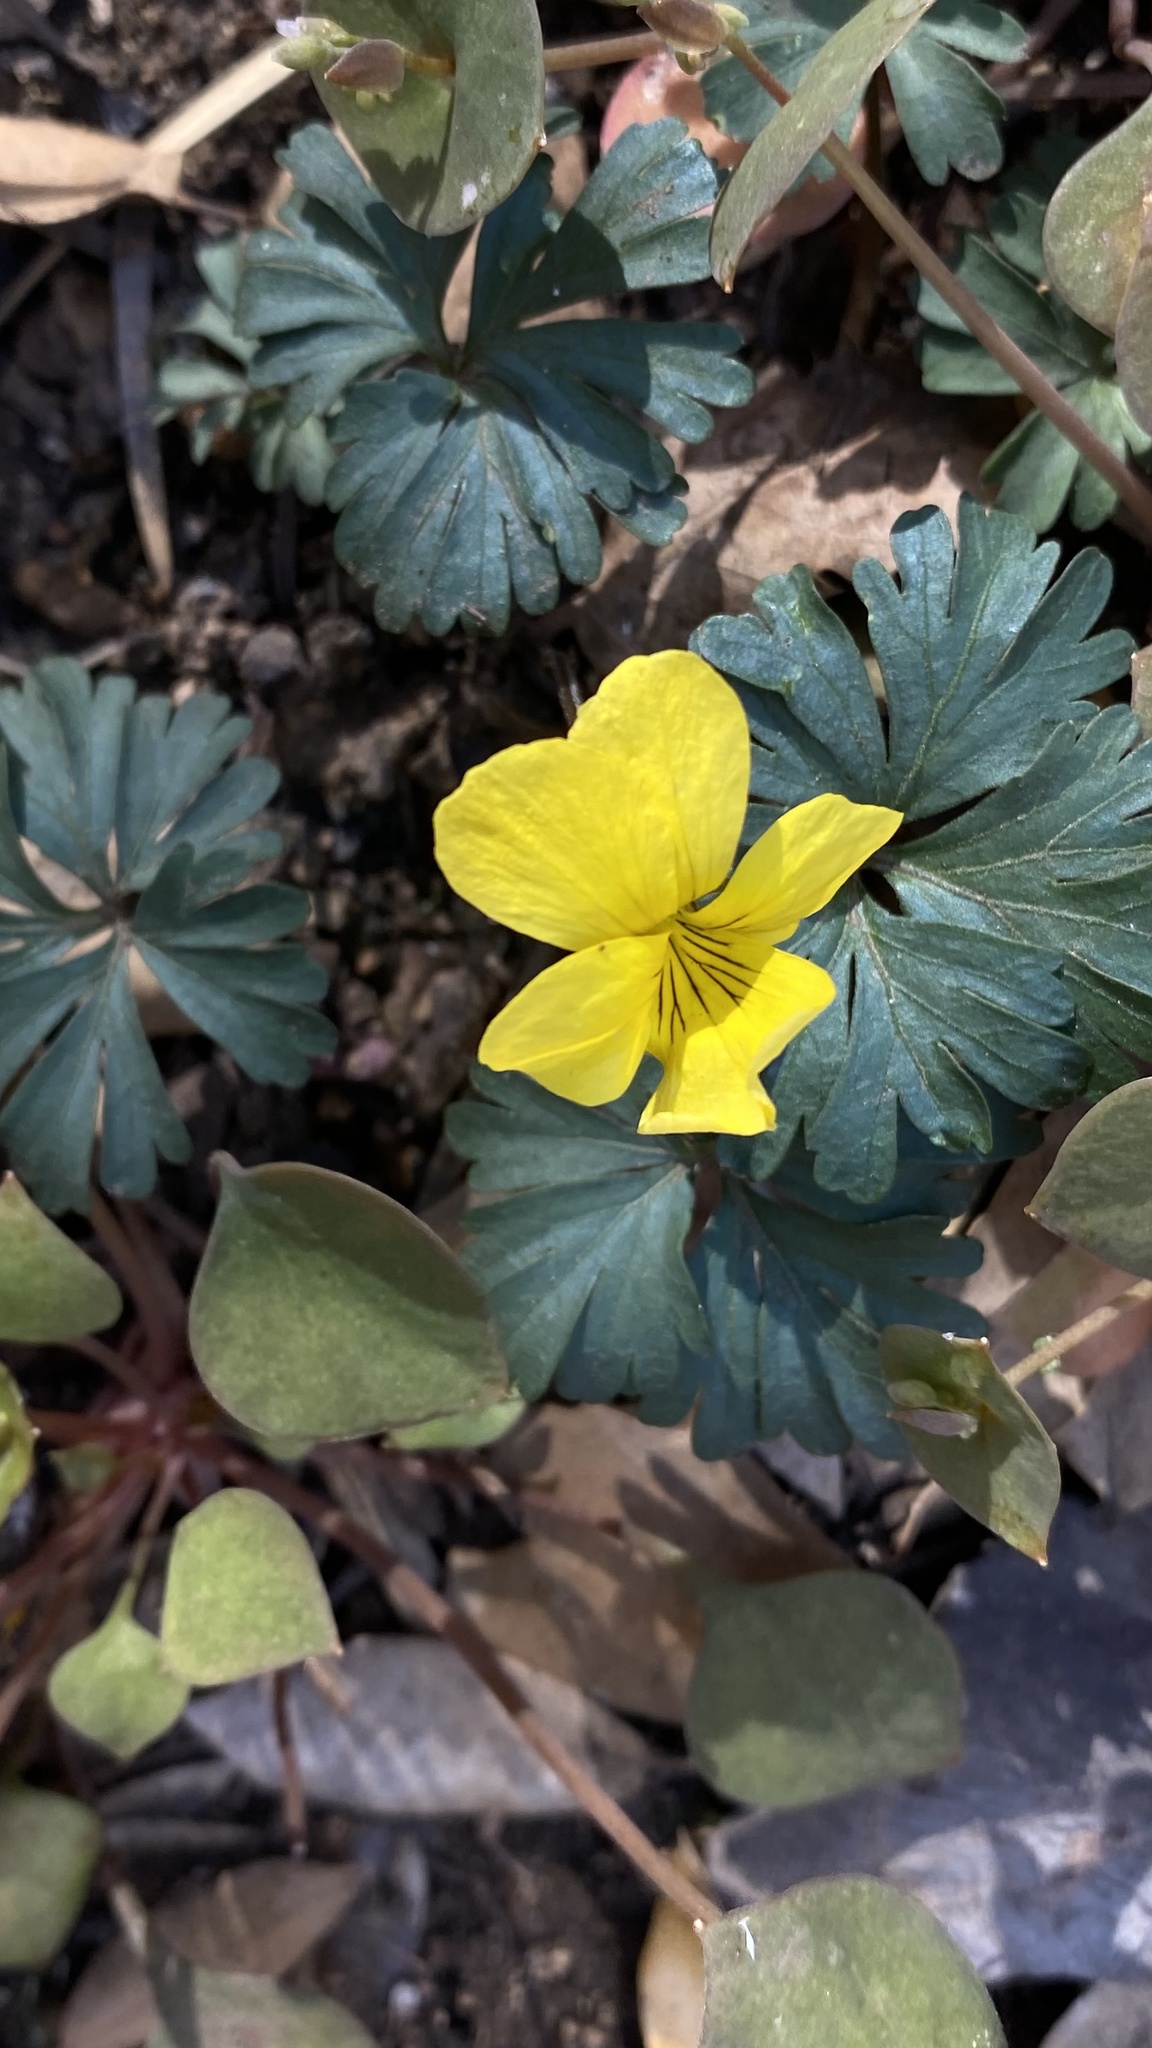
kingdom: Plantae
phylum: Tracheophyta
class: Magnoliopsida
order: Malpighiales
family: Violaceae
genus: Viola
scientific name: Viola sheltonii
